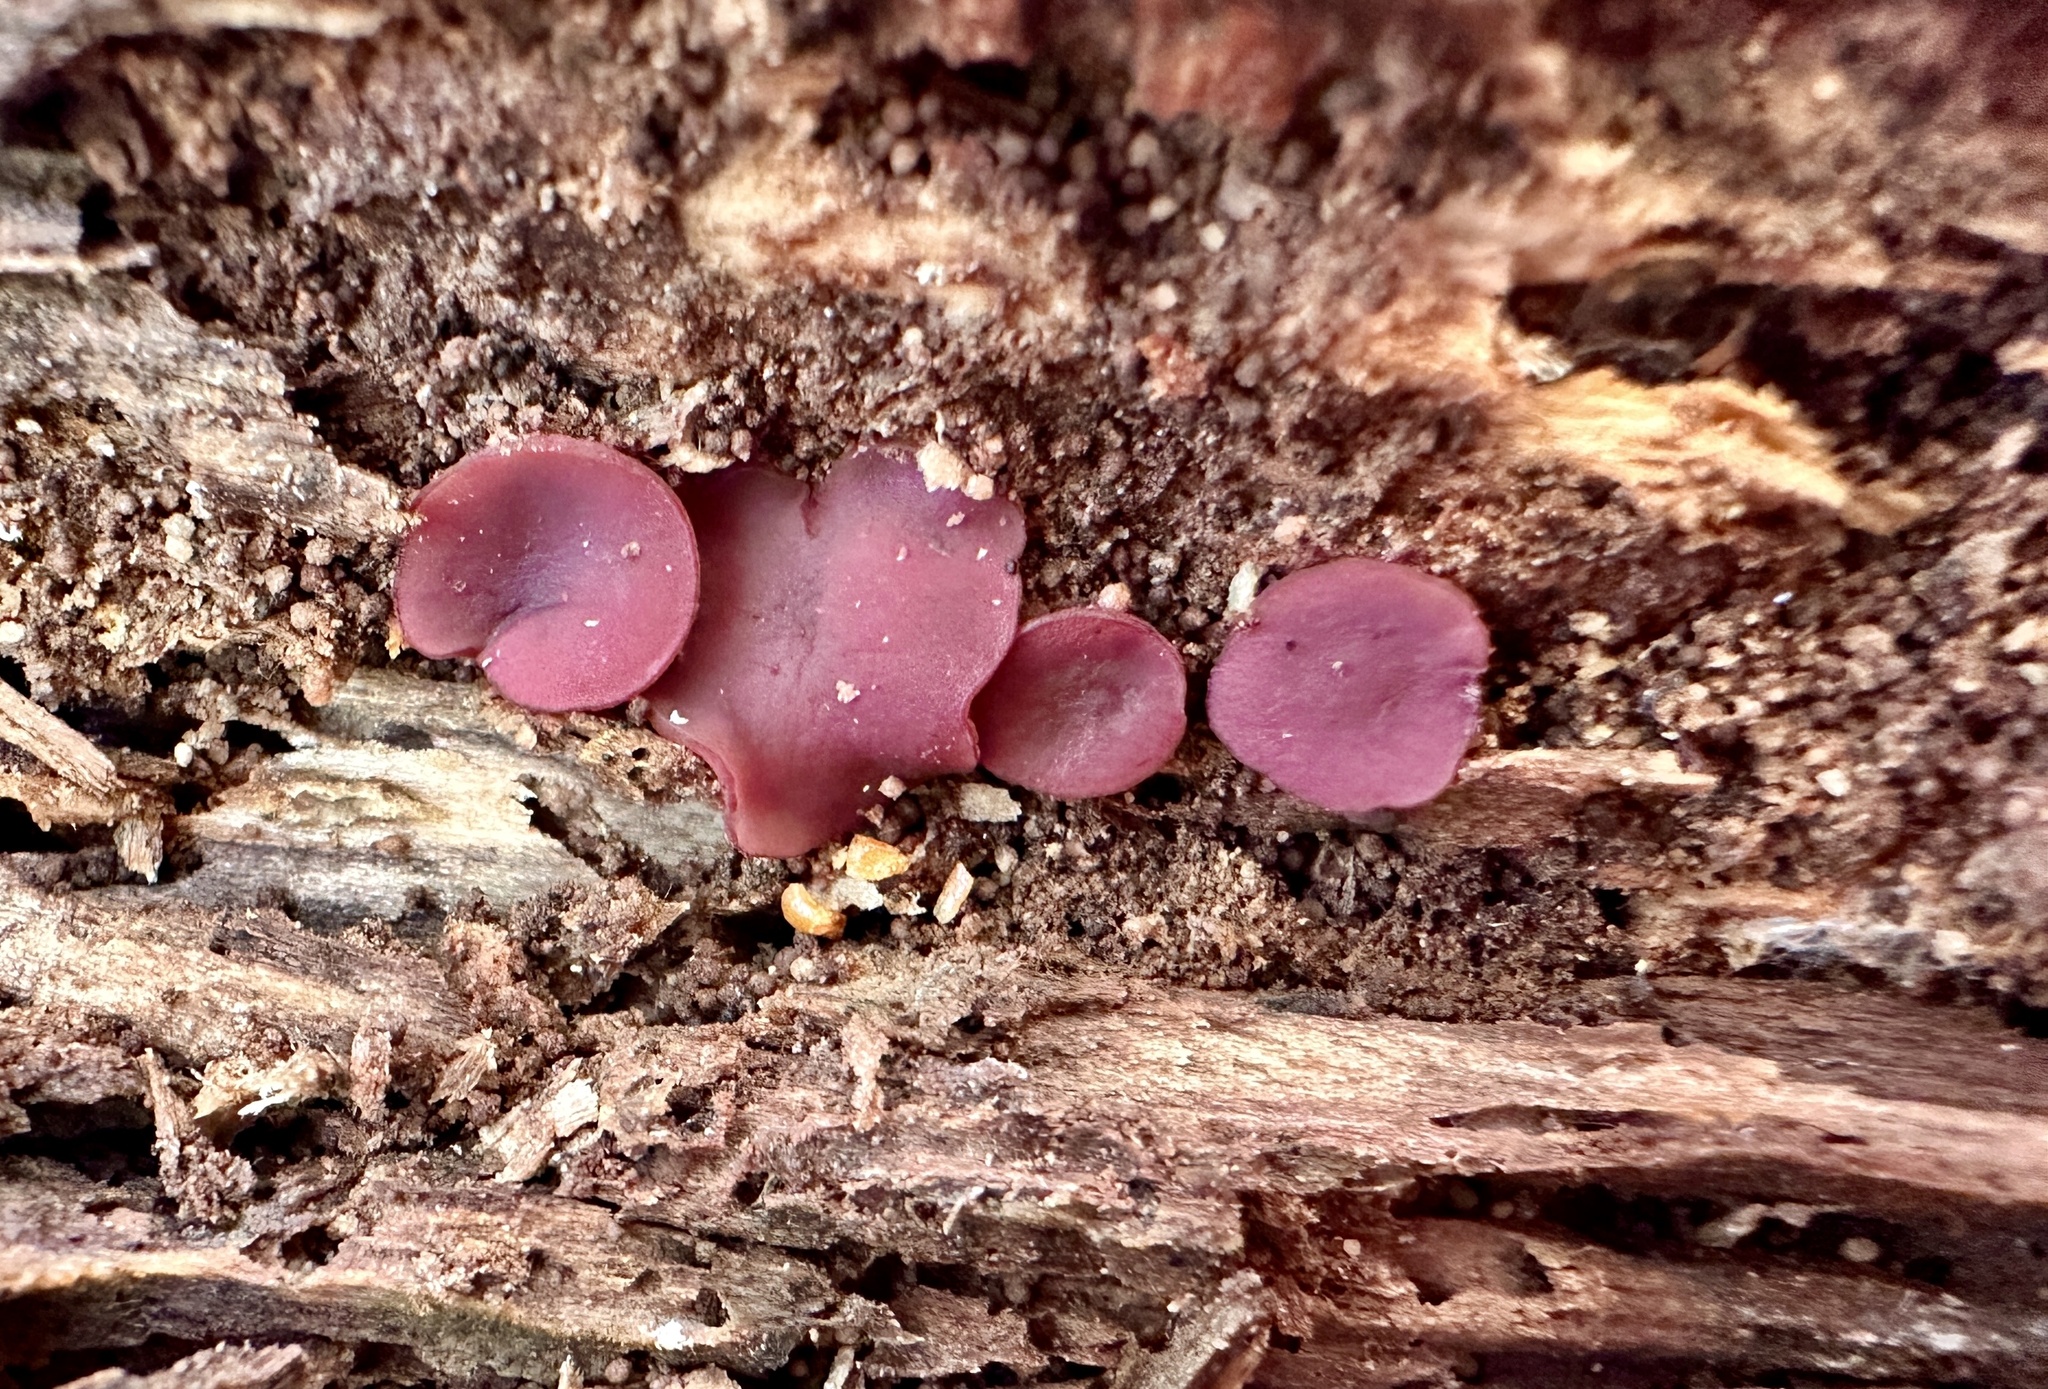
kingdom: Fungi
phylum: Ascomycota
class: Leotiomycetes
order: Helotiales
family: Gelatinodiscaceae
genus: Ascocoryne
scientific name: Ascocoryne sarcoides
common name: Purple jellydisc
